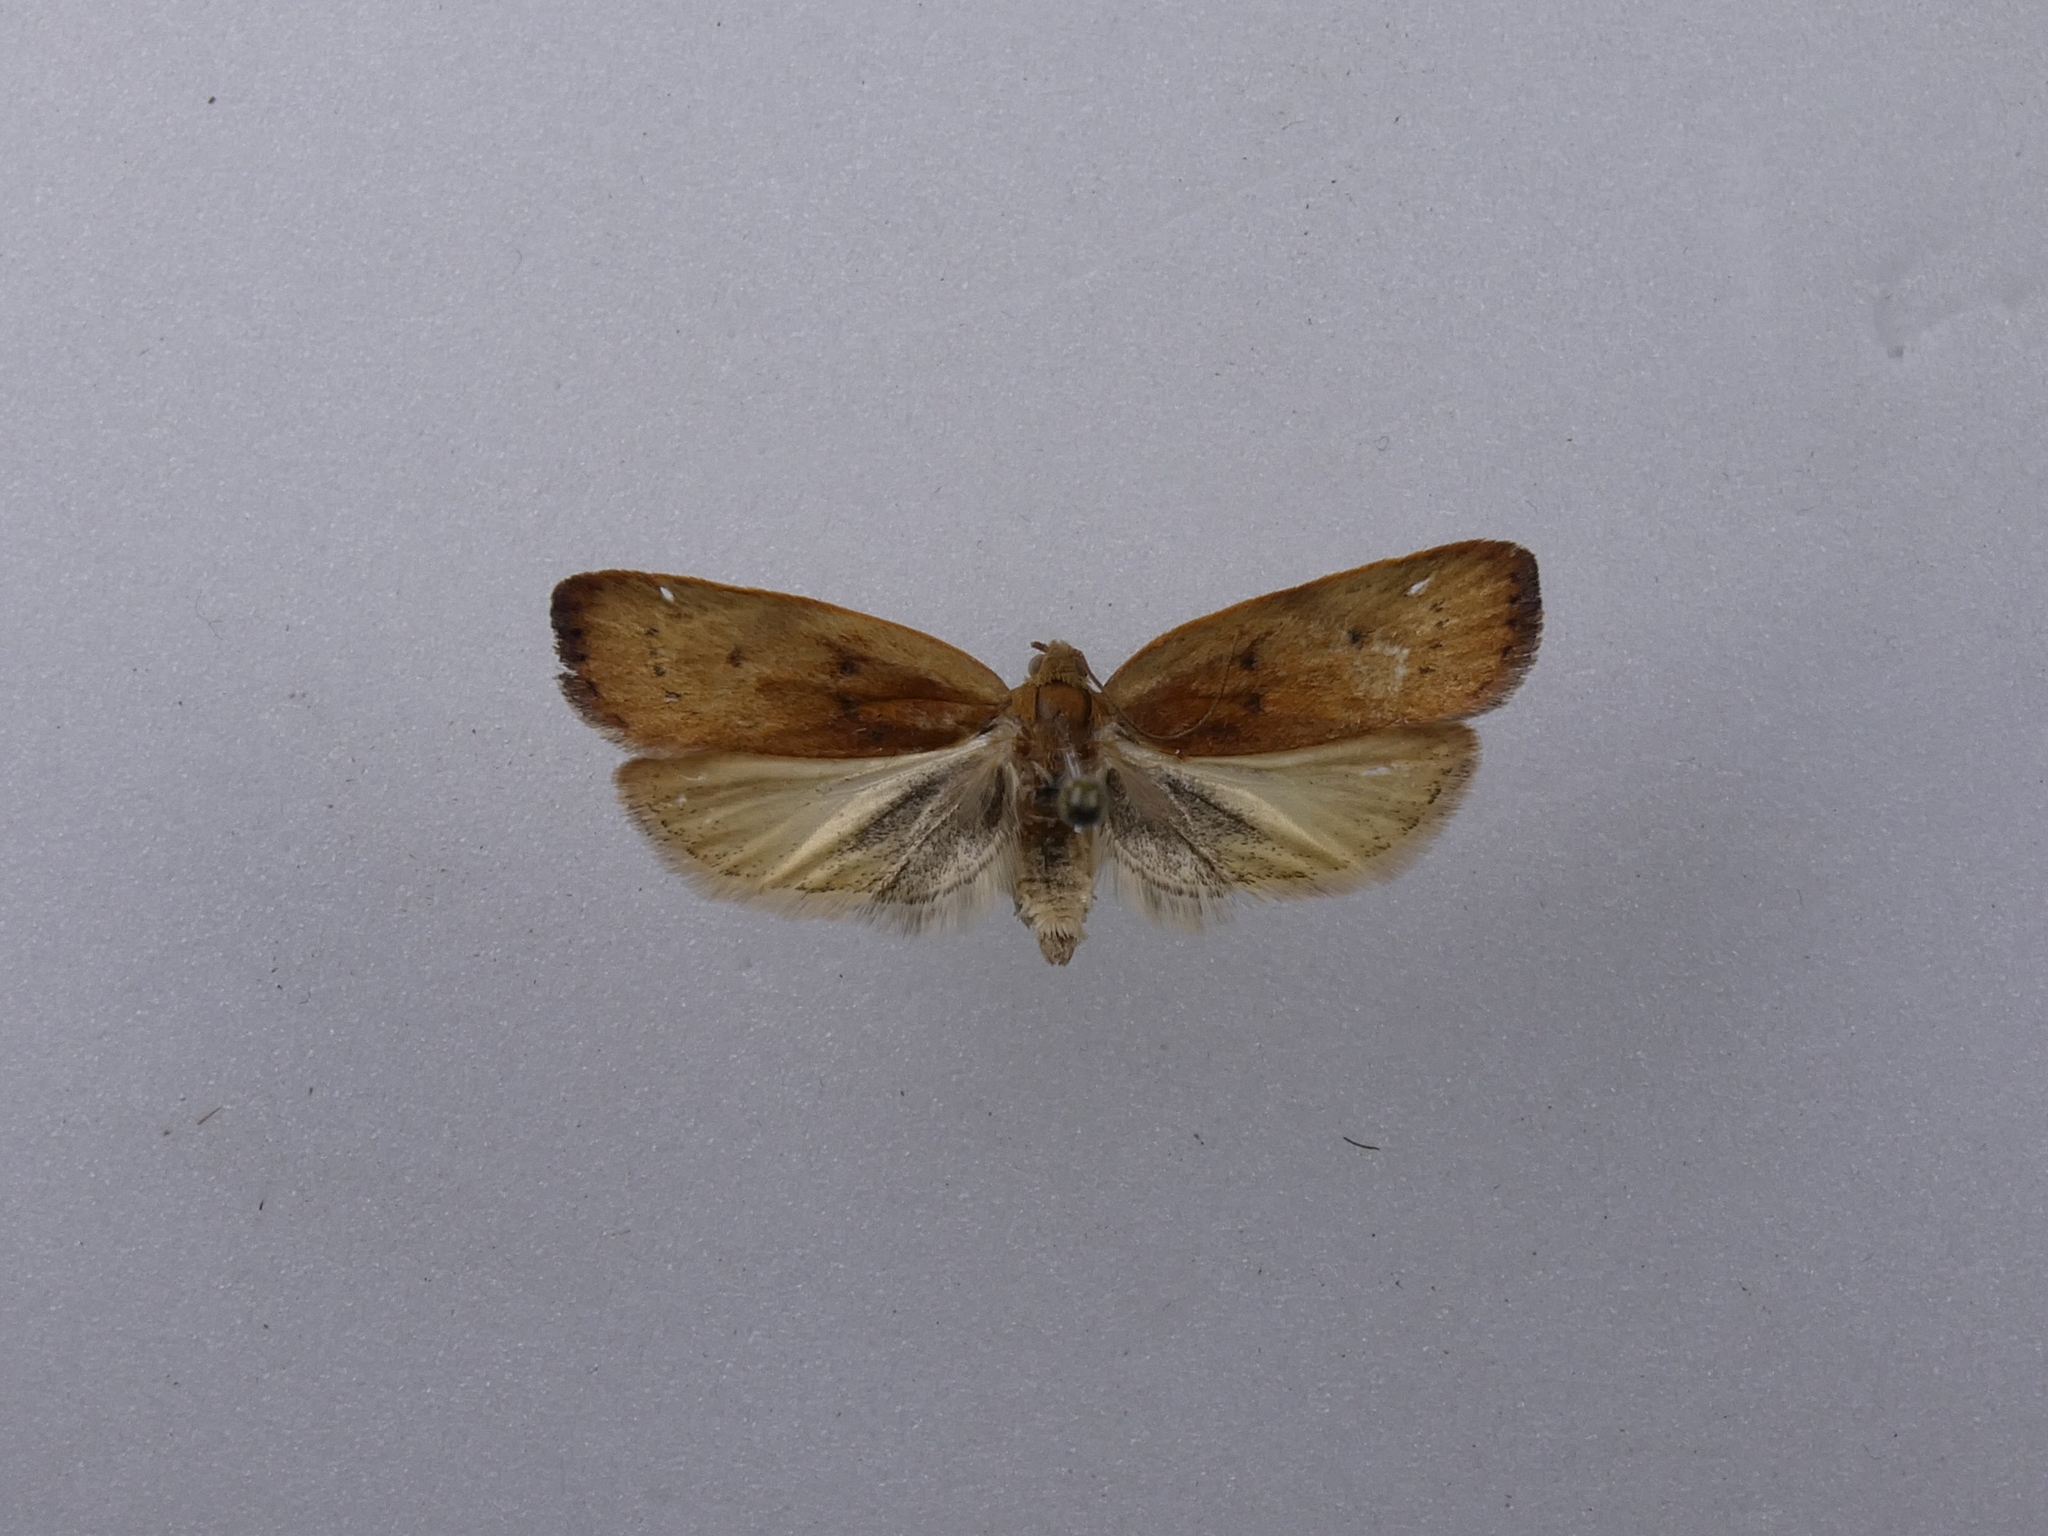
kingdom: Animalia
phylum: Arthropoda
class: Insecta
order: Lepidoptera
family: Depressariidae
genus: Phaeosaces
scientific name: Phaeosaces coarctatella
